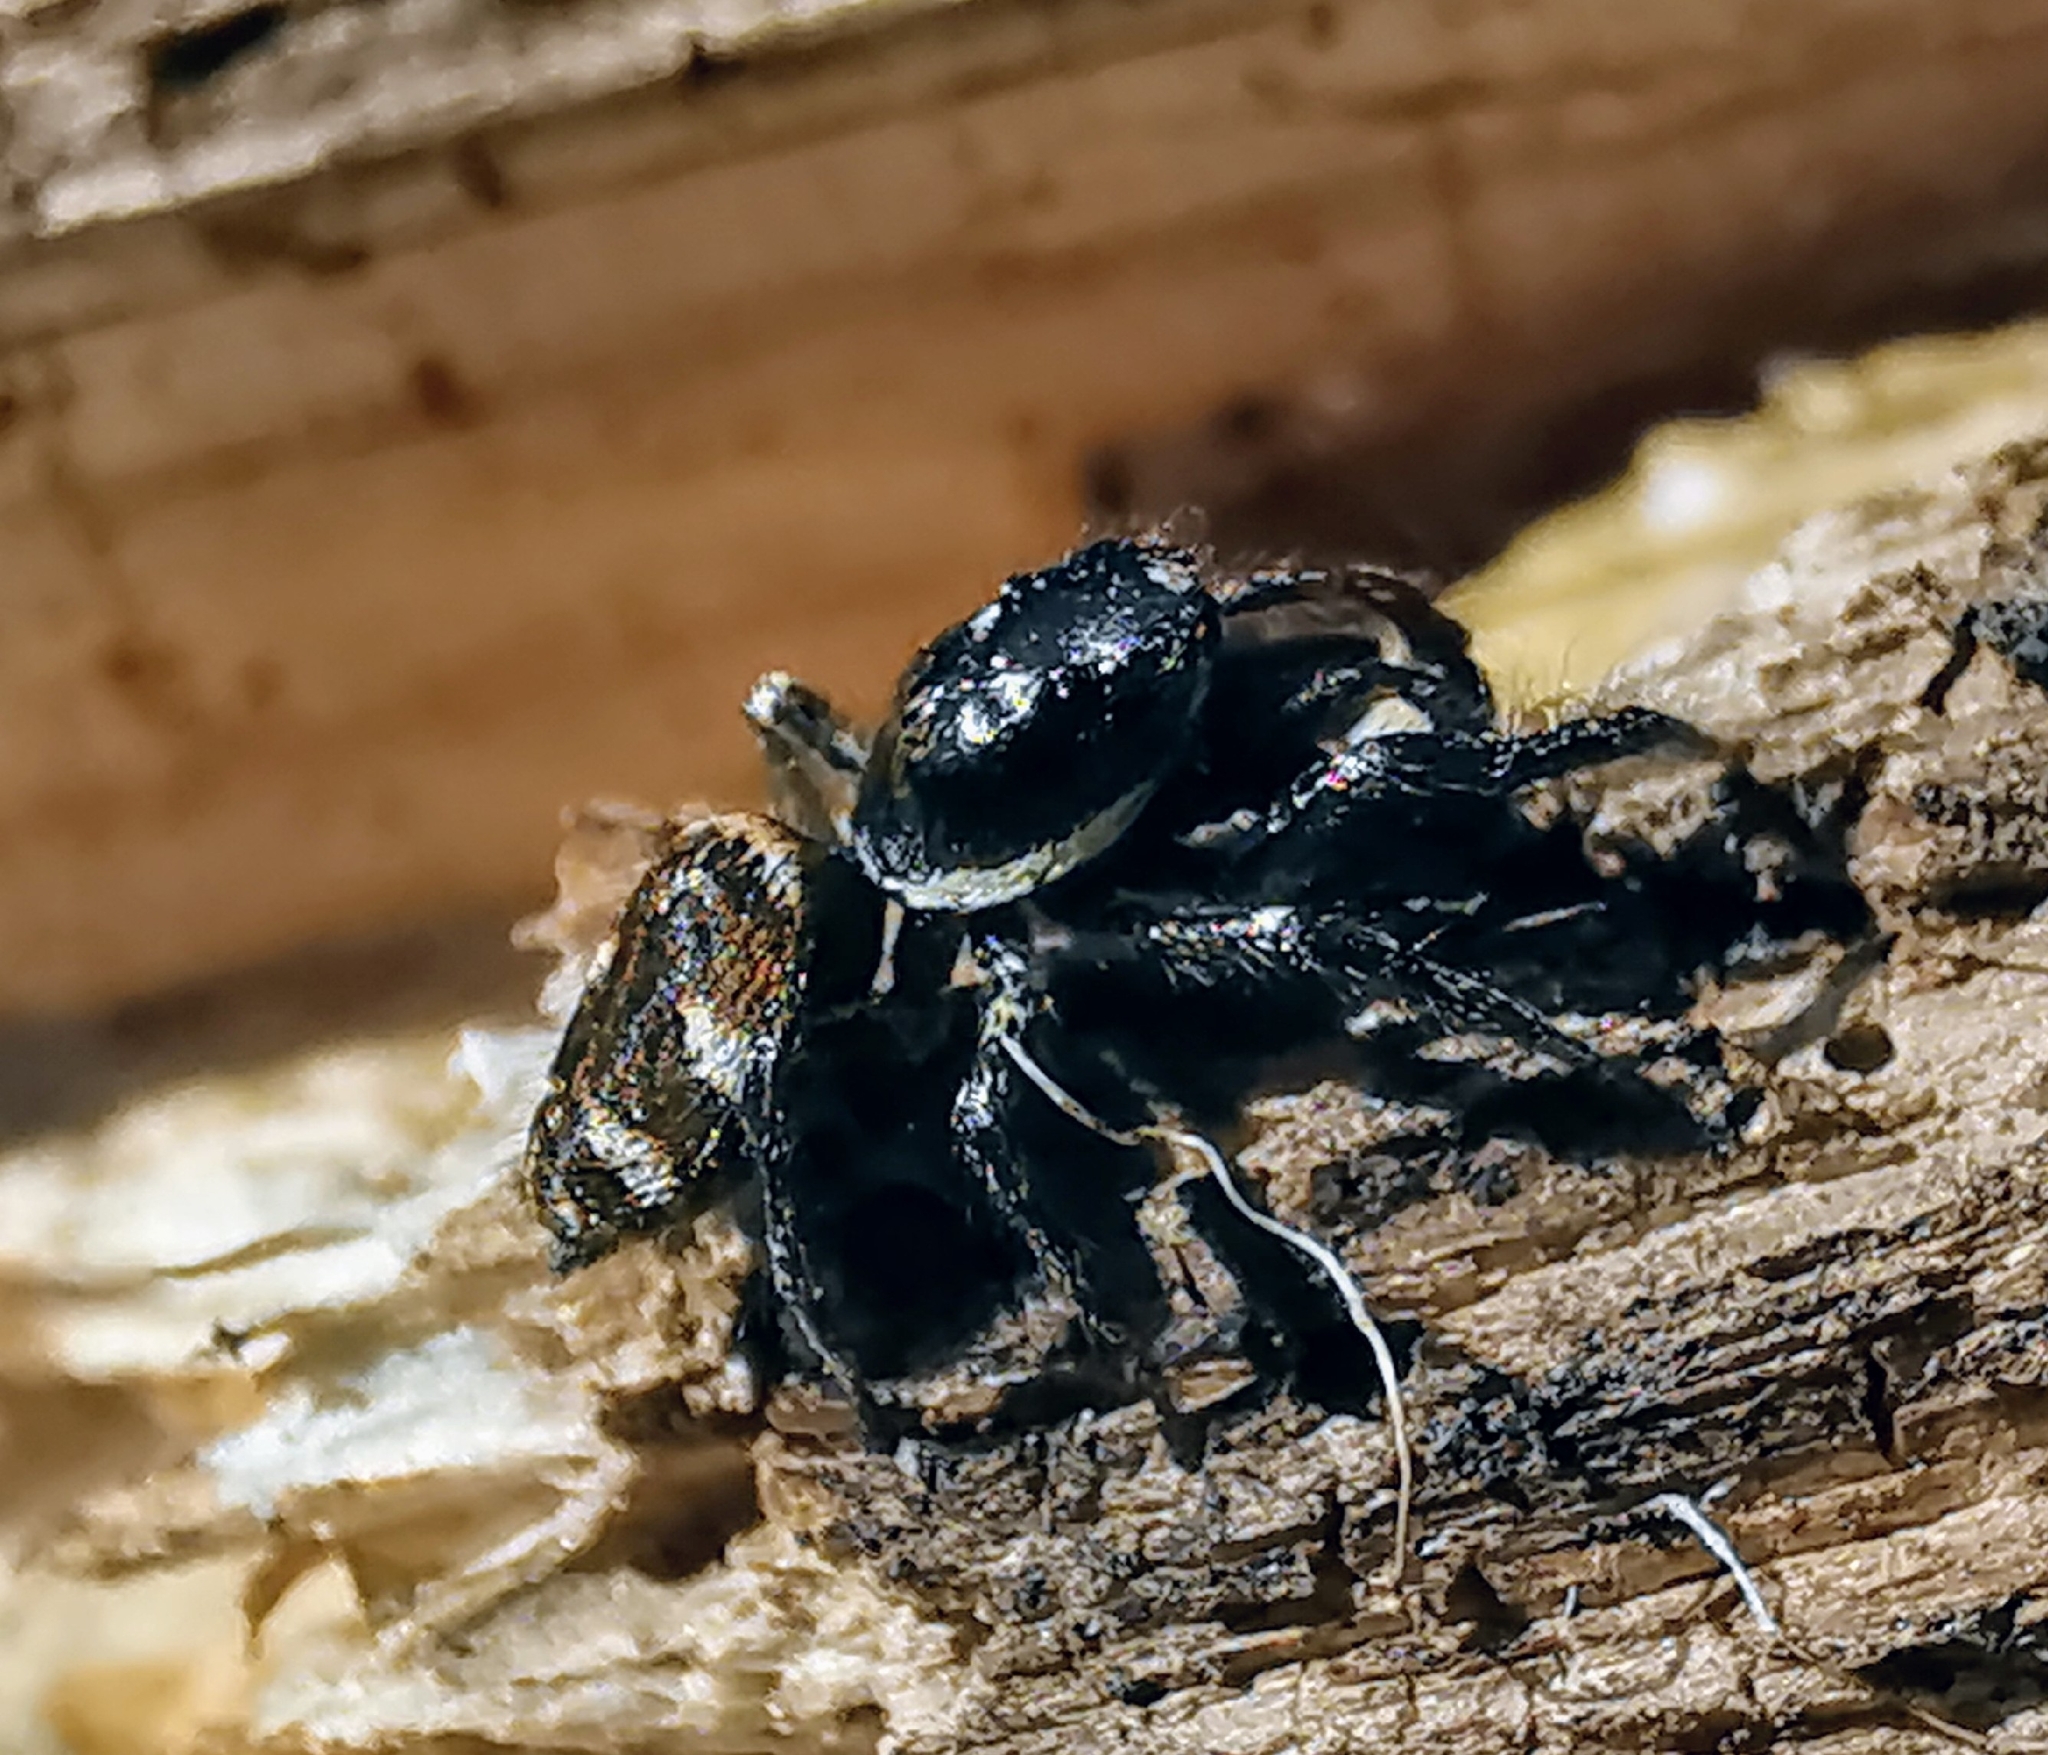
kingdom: Animalia
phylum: Arthropoda
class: Arachnida
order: Araneae
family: Salticidae
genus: Salticus
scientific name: Salticus scenicus
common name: Zebra jumper
